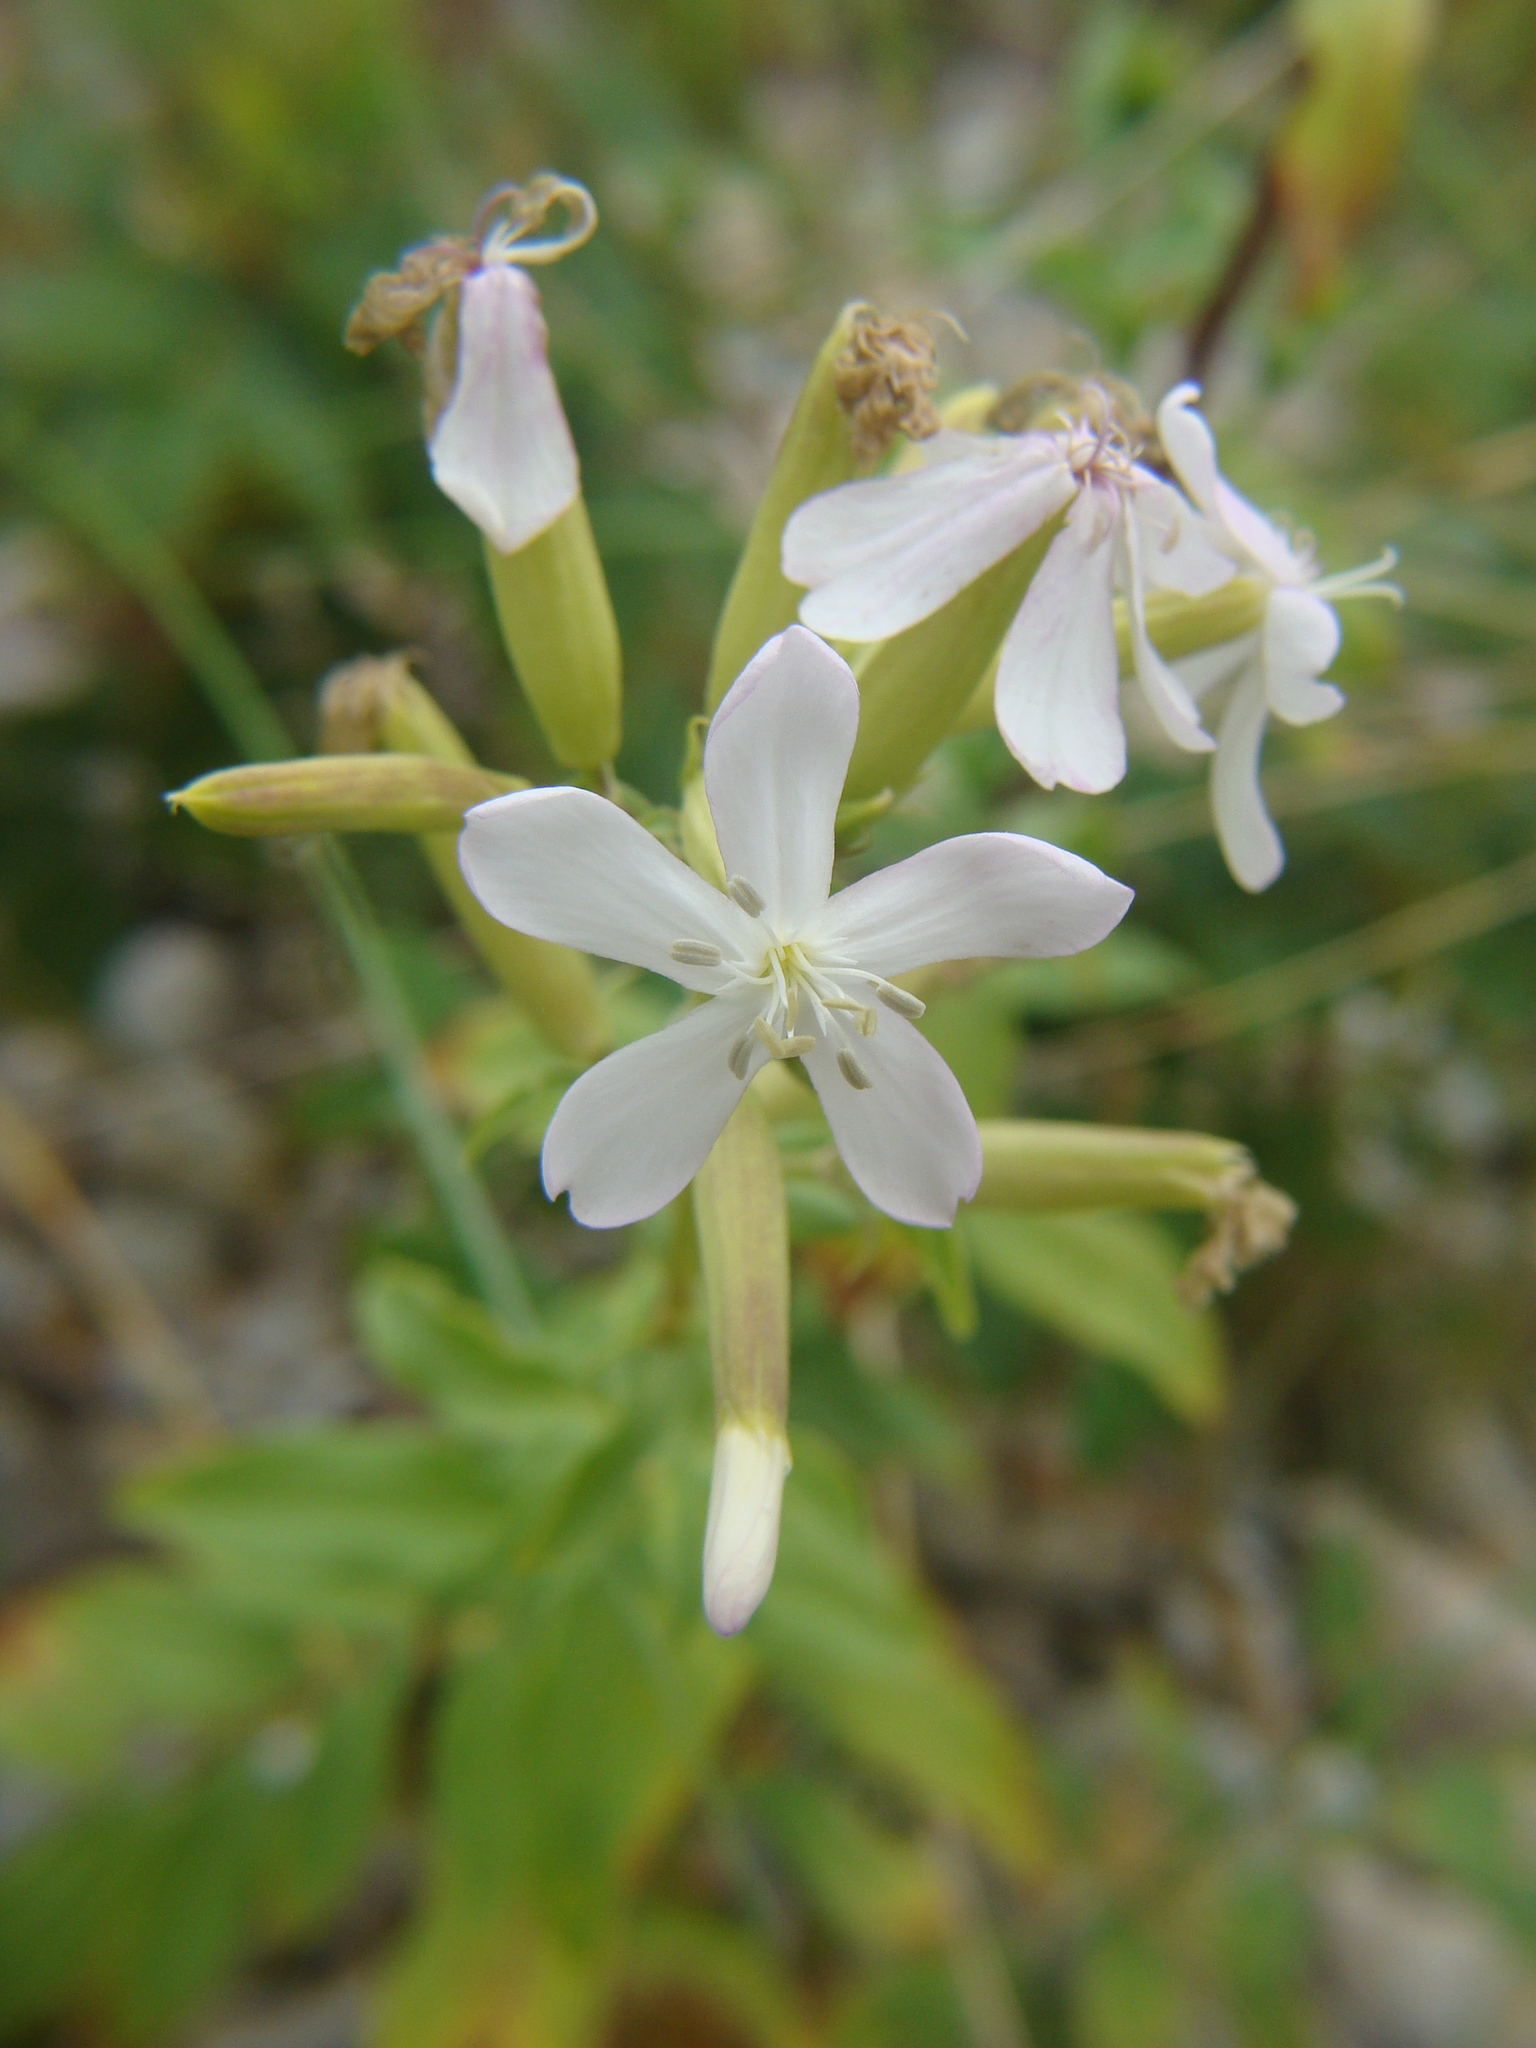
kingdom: Plantae
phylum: Tracheophyta
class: Magnoliopsida
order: Caryophyllales
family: Caryophyllaceae
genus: Saponaria
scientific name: Saponaria officinalis
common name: Soapwort
